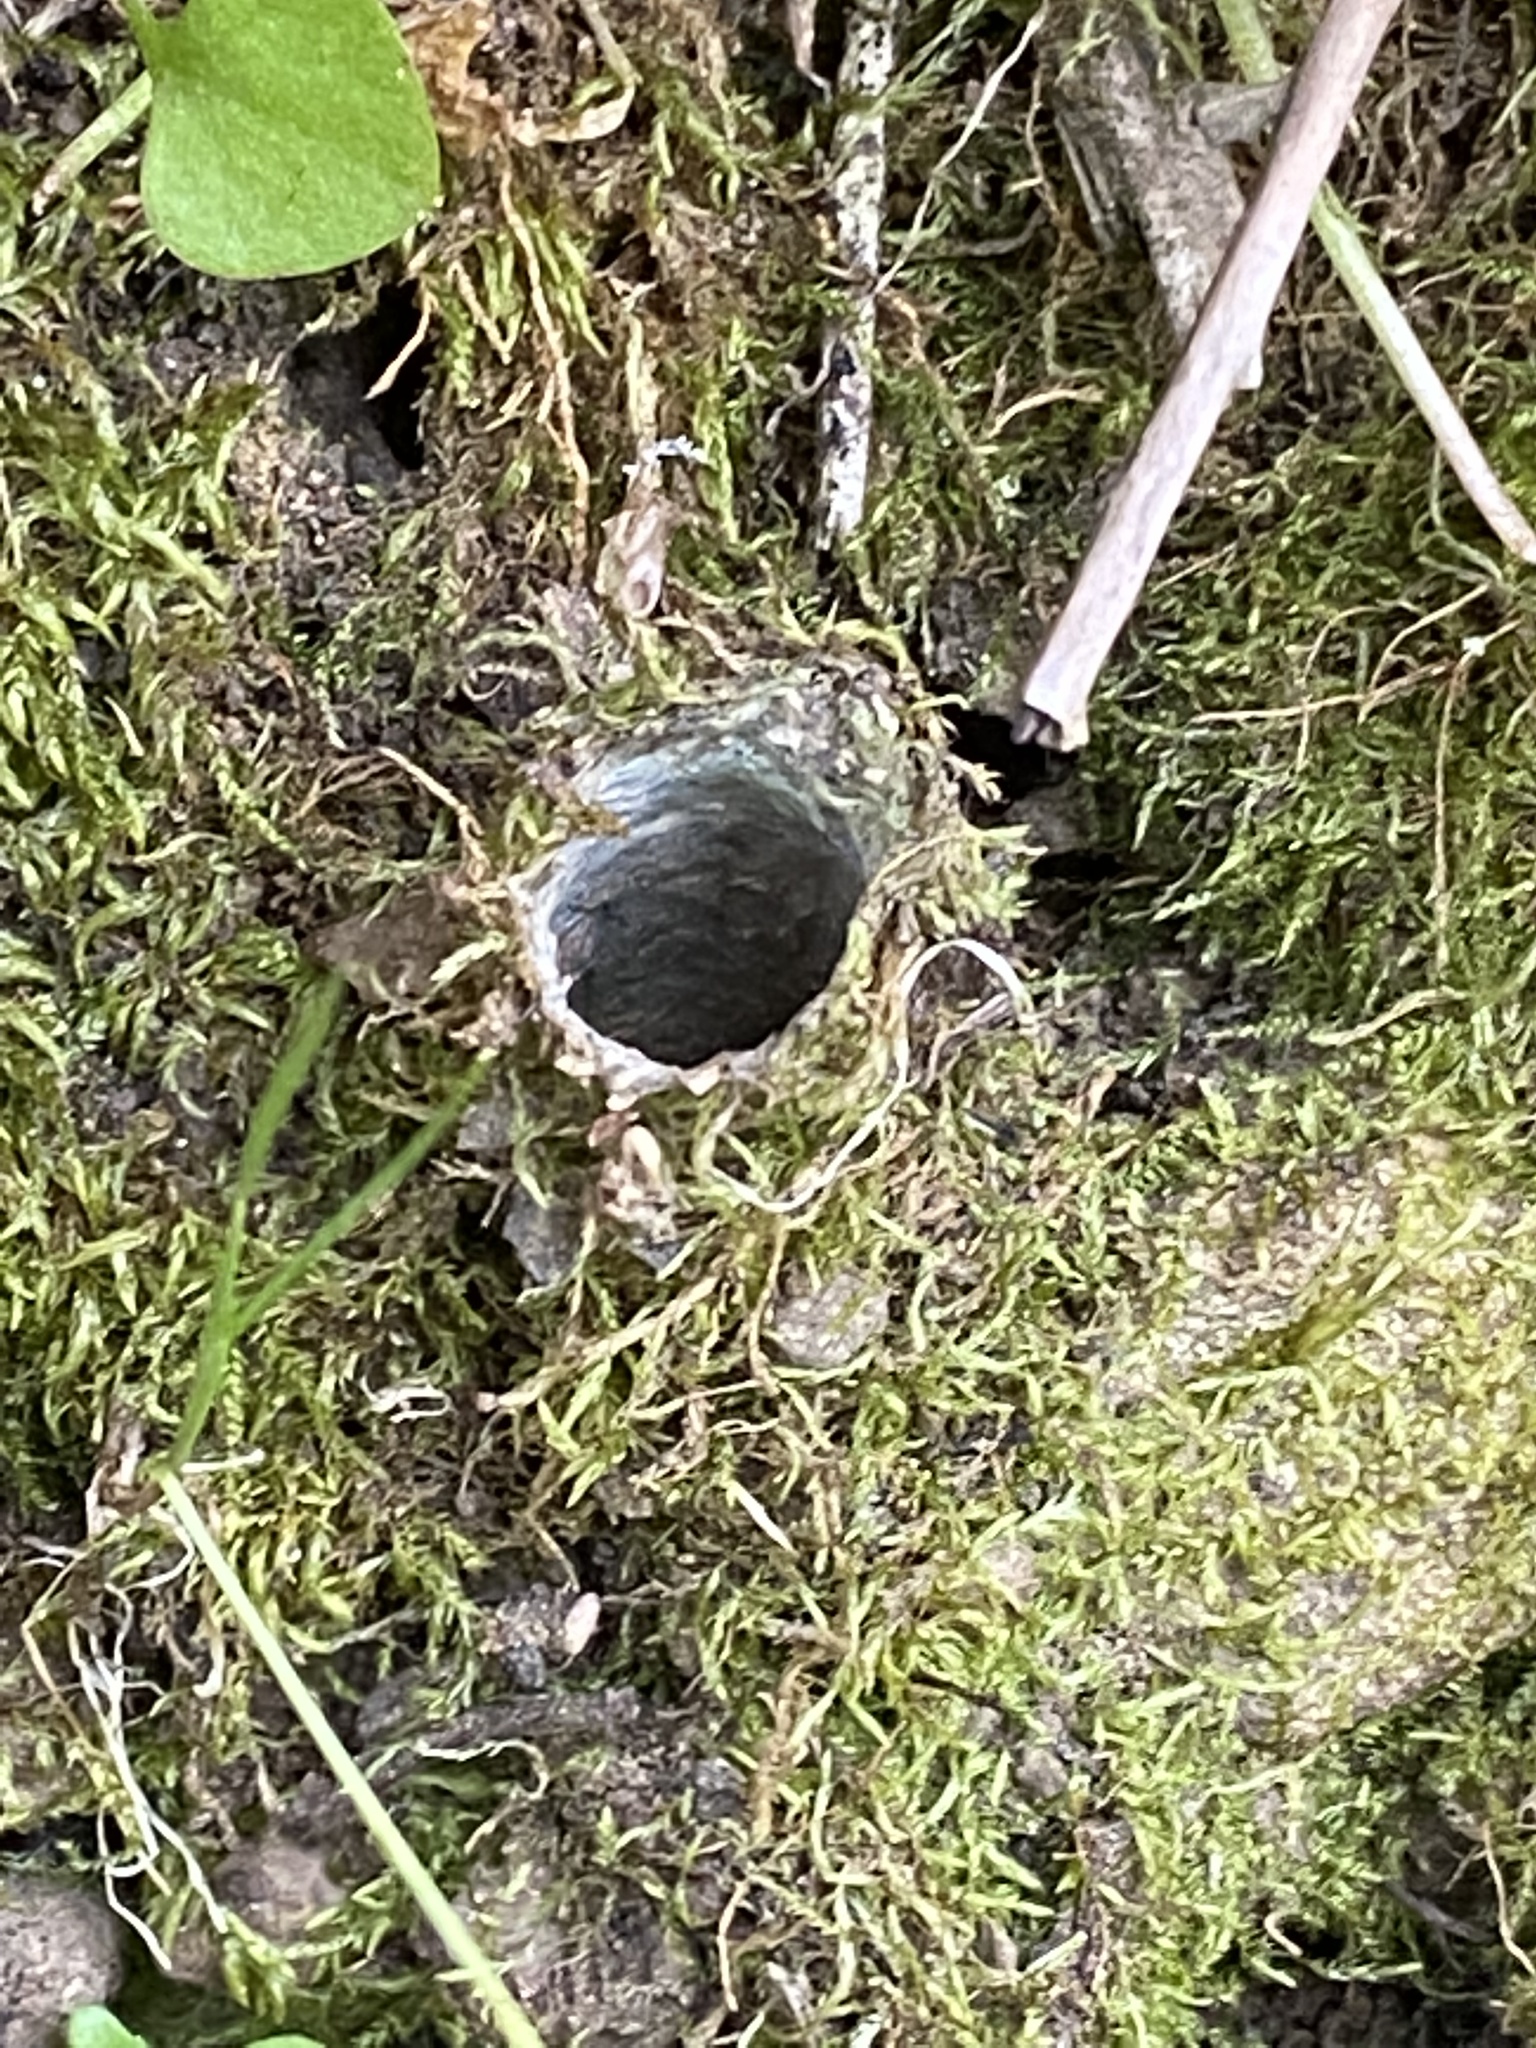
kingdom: Animalia
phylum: Arthropoda
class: Arachnida
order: Araneae
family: Antrodiaetidae
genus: Atypoides
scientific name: Atypoides riversi
